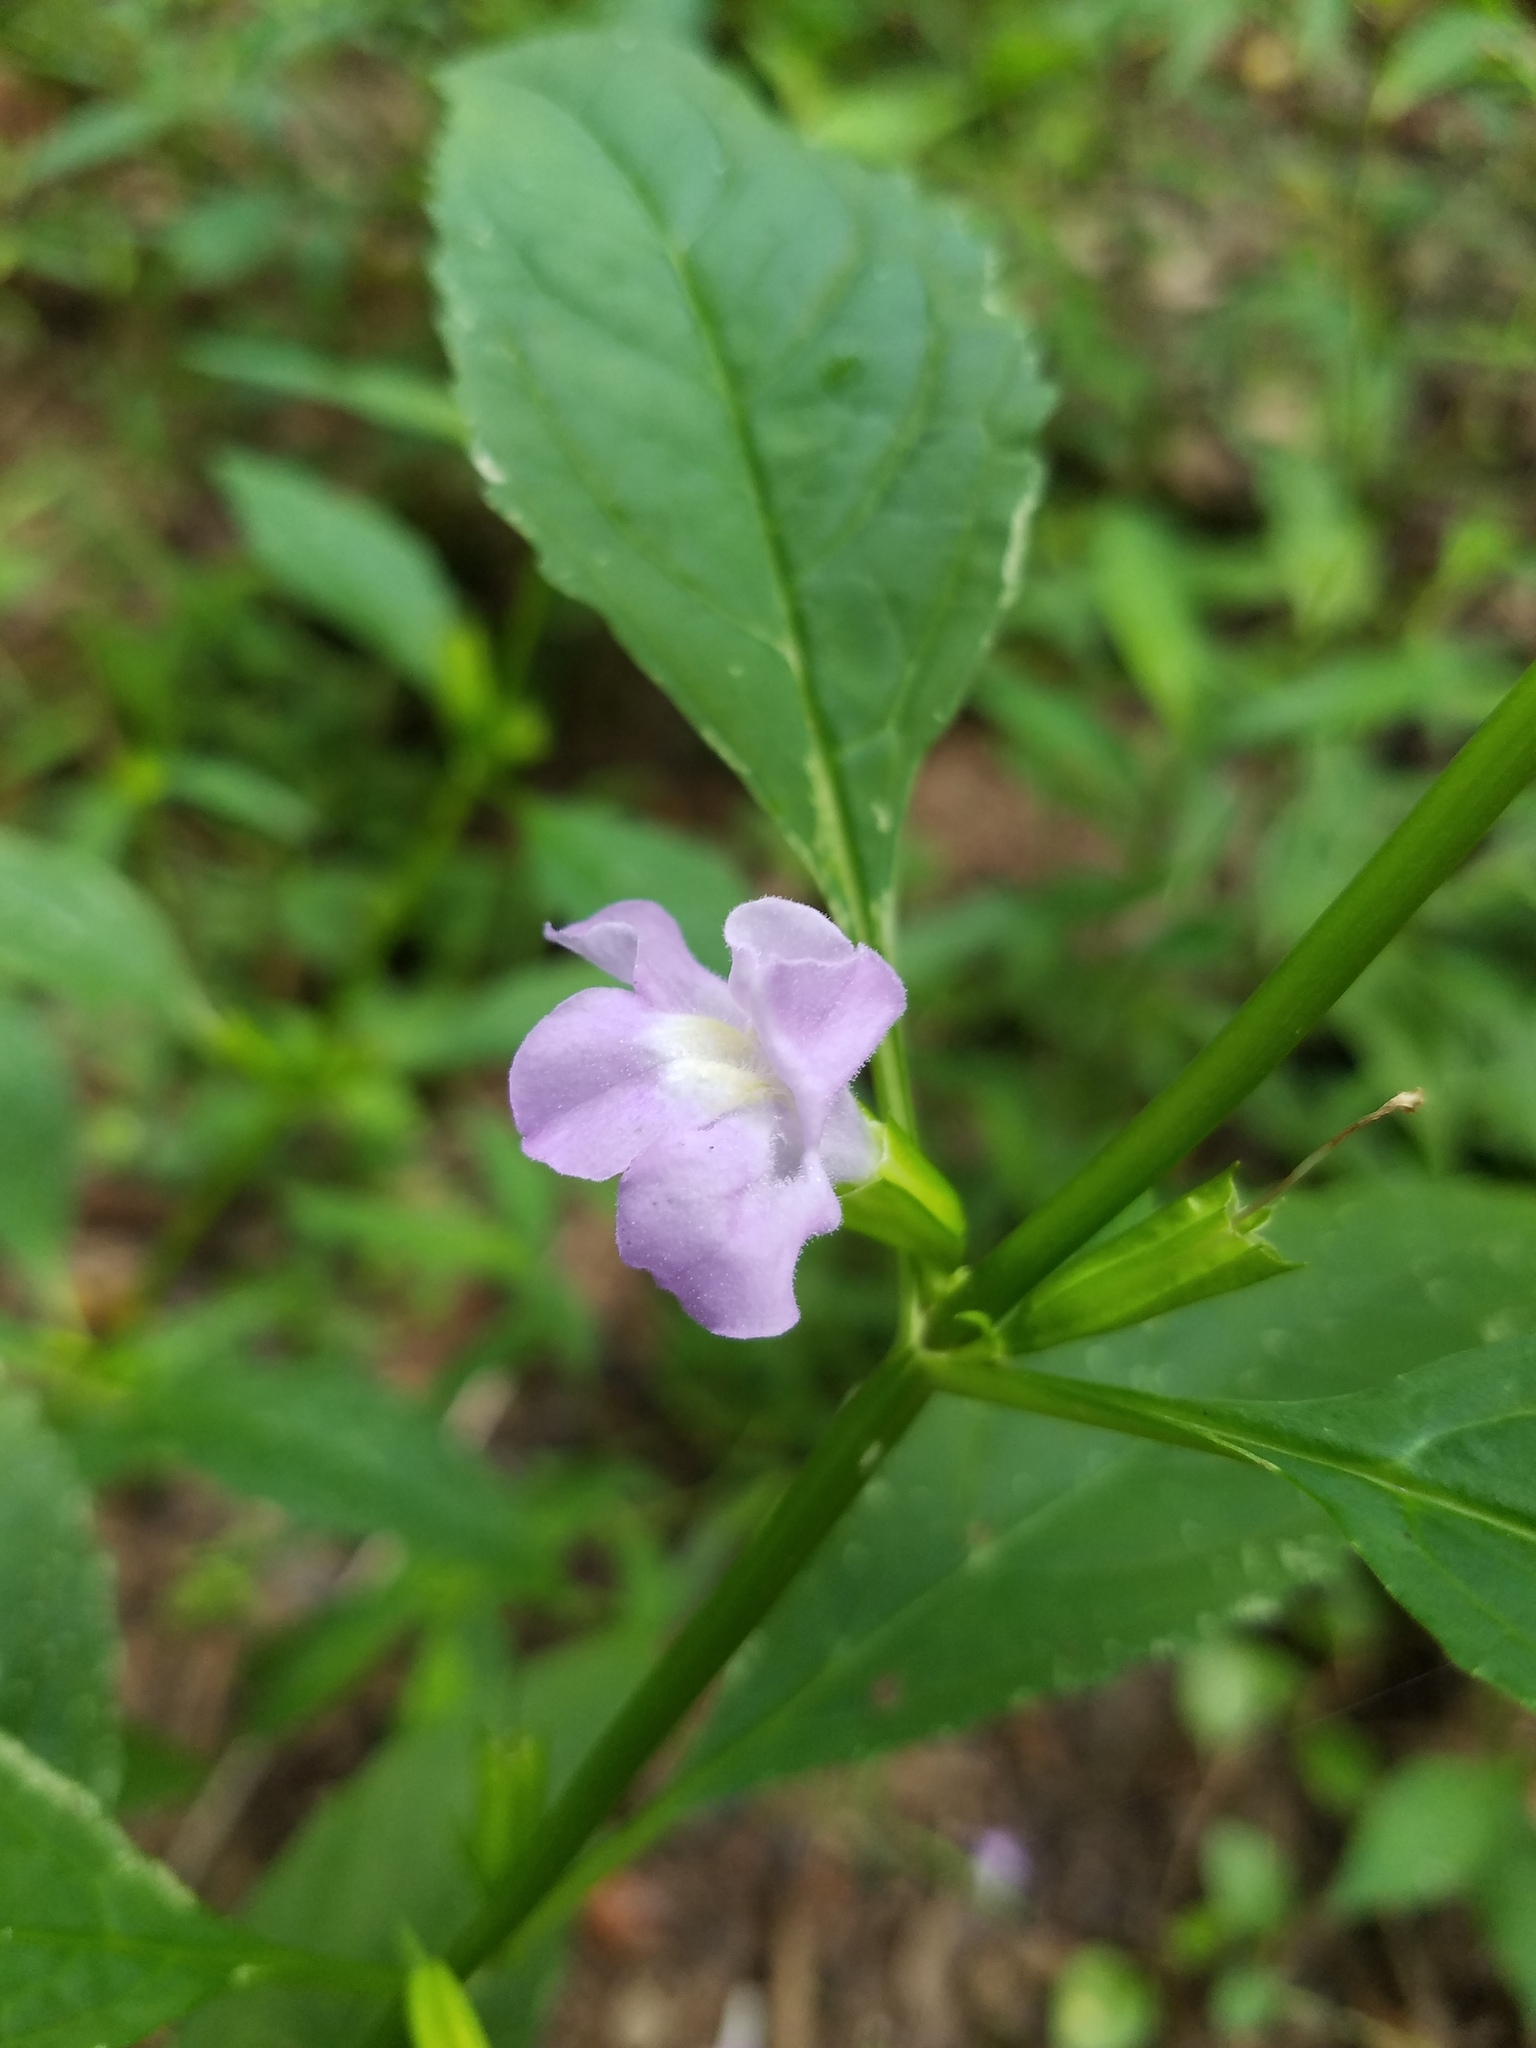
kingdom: Plantae
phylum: Tracheophyta
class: Magnoliopsida
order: Lamiales
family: Phrymaceae
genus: Mimulus
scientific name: Mimulus alatus
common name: Sharp-wing monkey-flower
